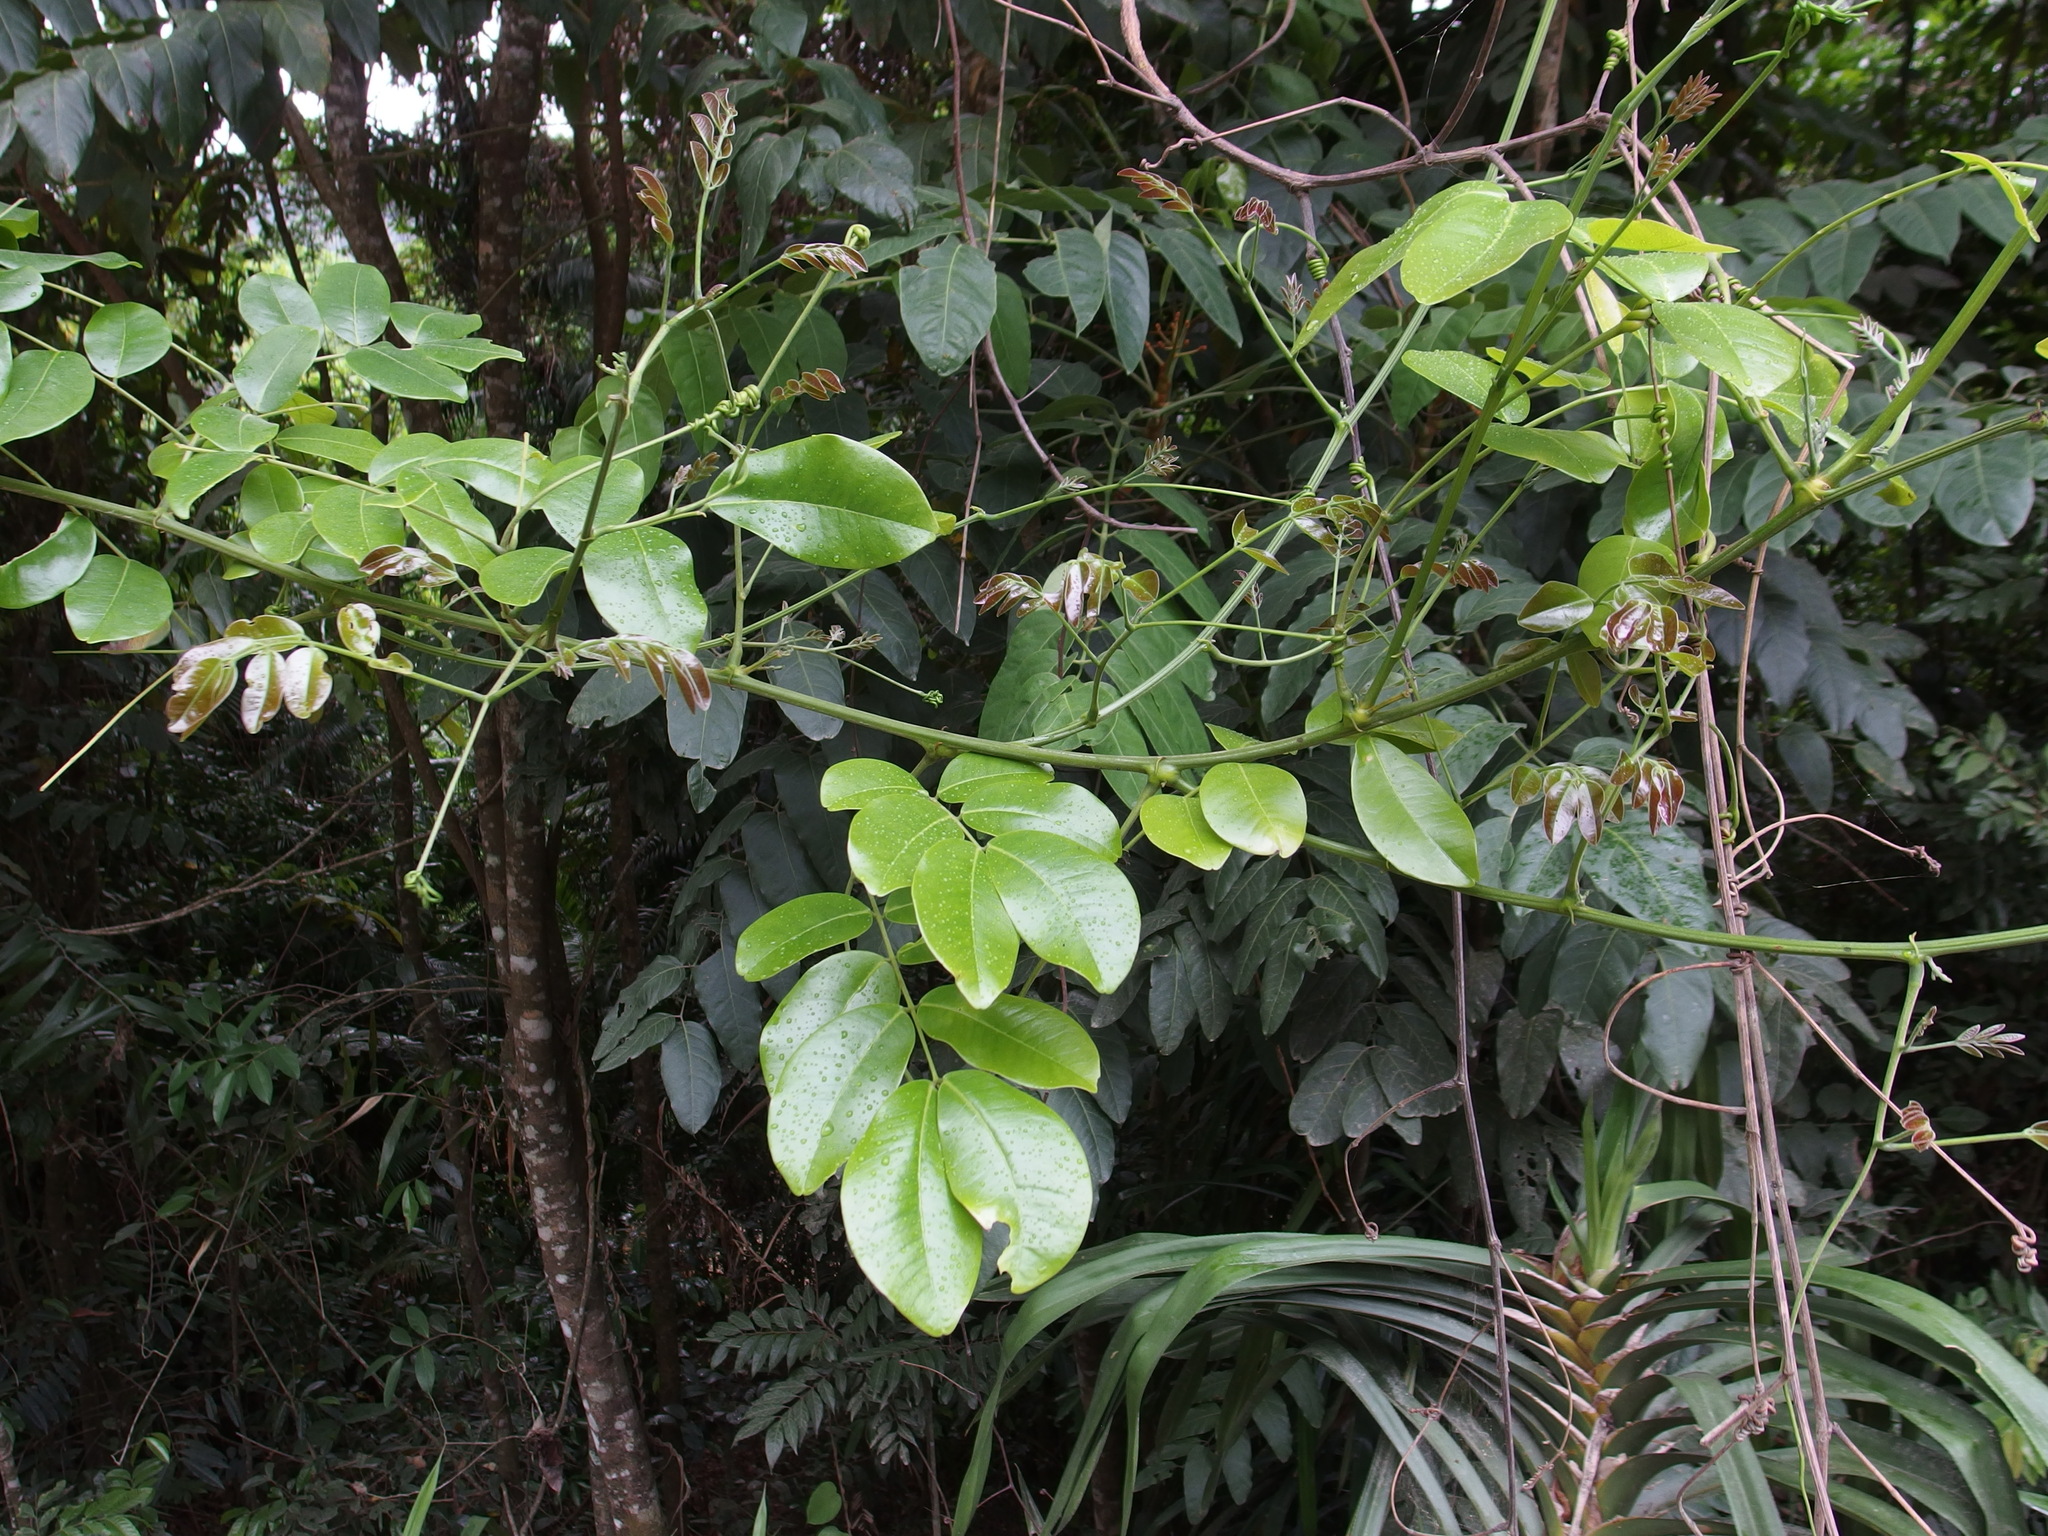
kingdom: Plantae
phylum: Tracheophyta
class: Magnoliopsida
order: Fabales
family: Fabaceae
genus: Entada
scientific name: Entada rheedei
